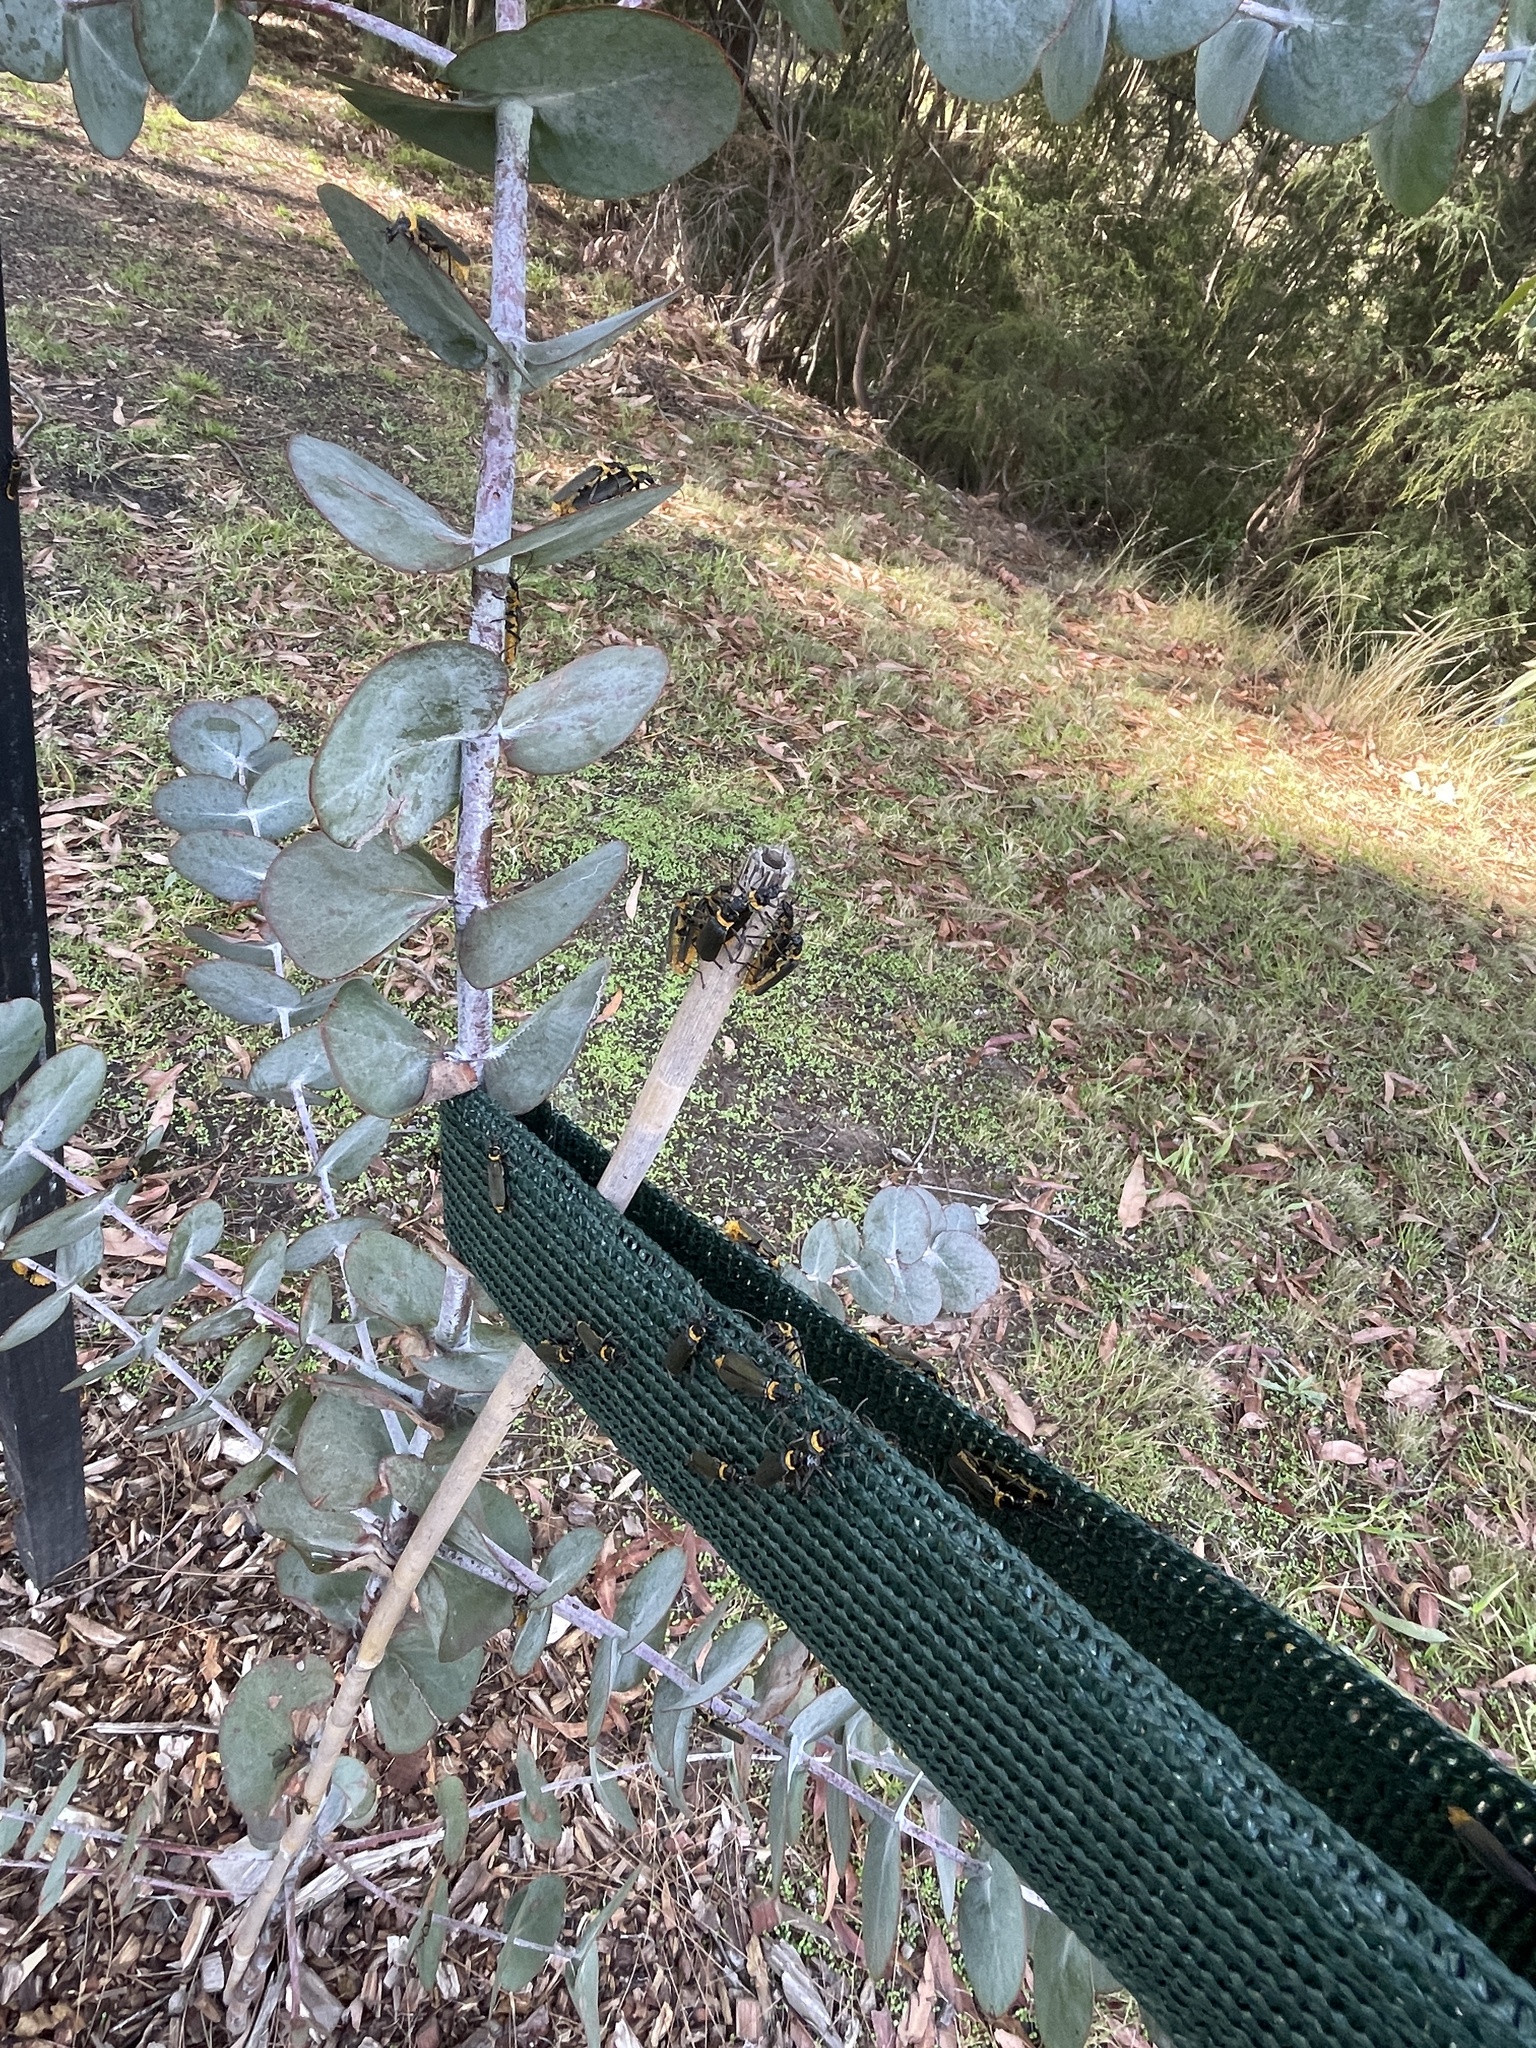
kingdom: Animalia
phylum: Arthropoda
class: Insecta
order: Coleoptera
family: Cantharidae
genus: Chauliognathus
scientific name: Chauliognathus
